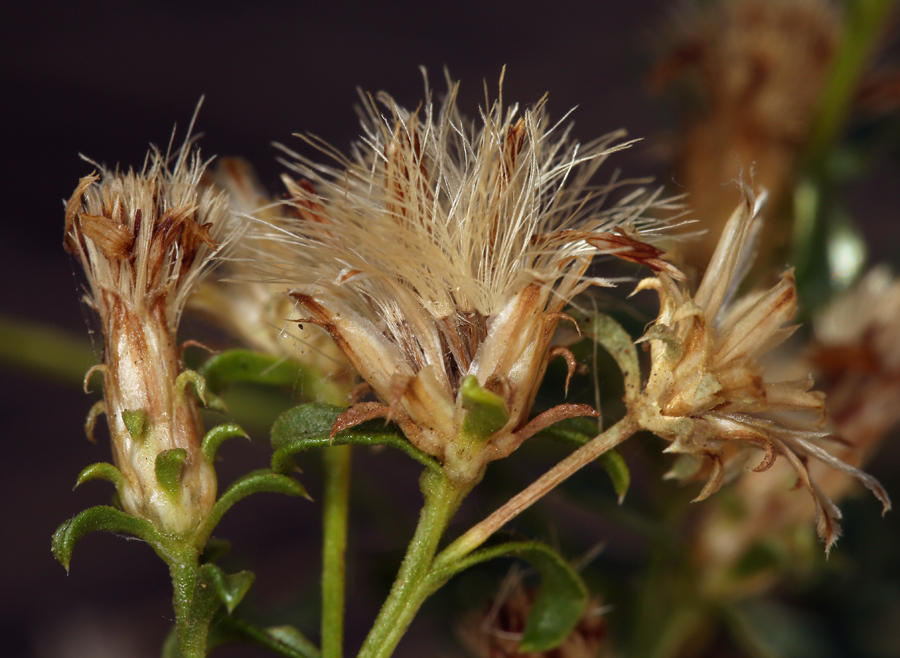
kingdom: Plantae
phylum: Tracheophyta
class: Magnoliopsida
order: Asterales
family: Asteraceae
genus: Ericameria
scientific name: Ericameria gilmanii
